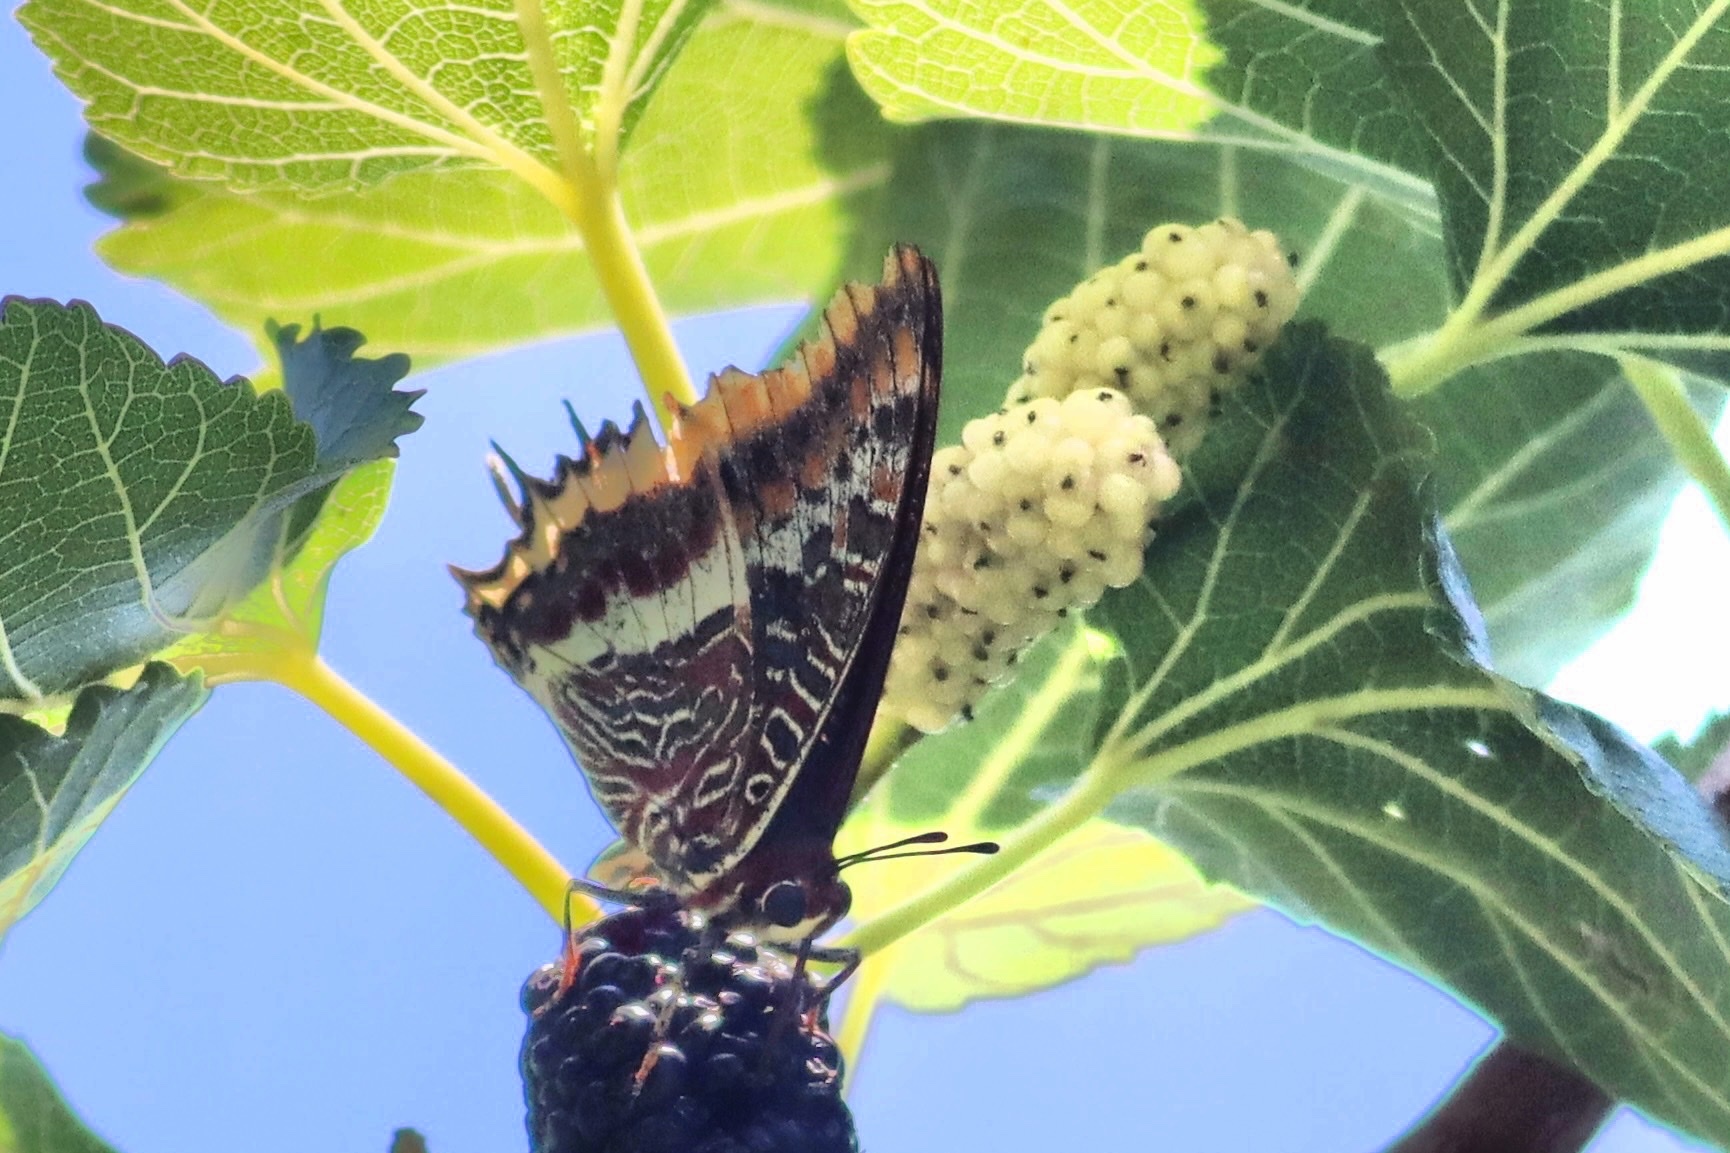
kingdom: Animalia
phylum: Arthropoda
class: Insecta
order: Lepidoptera
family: Nymphalidae
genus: Charaxes
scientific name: Charaxes jasius
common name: Two tailed pasha
